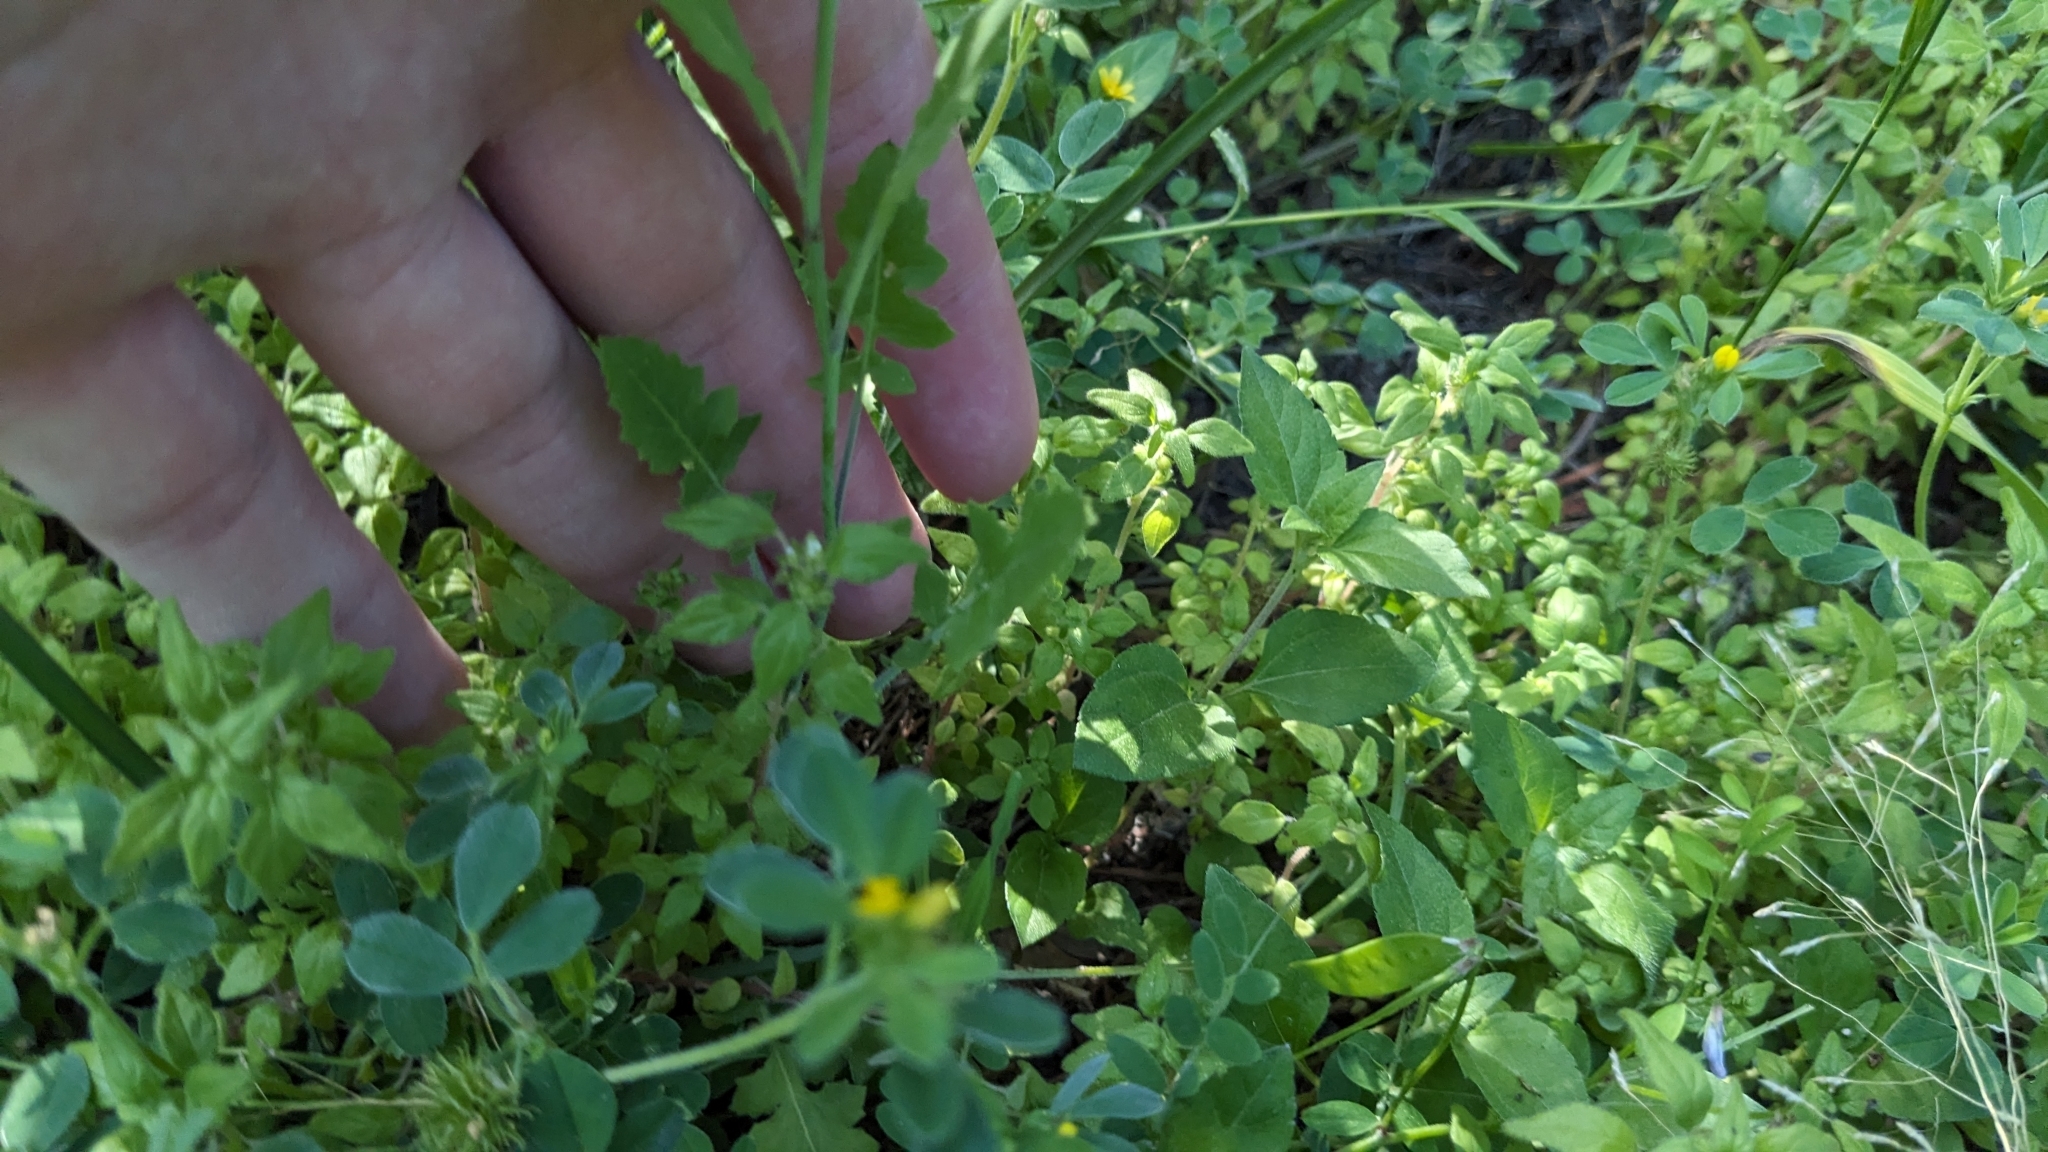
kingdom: Plantae
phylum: Tracheophyta
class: Magnoliopsida
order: Brassicales
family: Brassicaceae
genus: Streptanthus
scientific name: Streptanthus petiolaris
